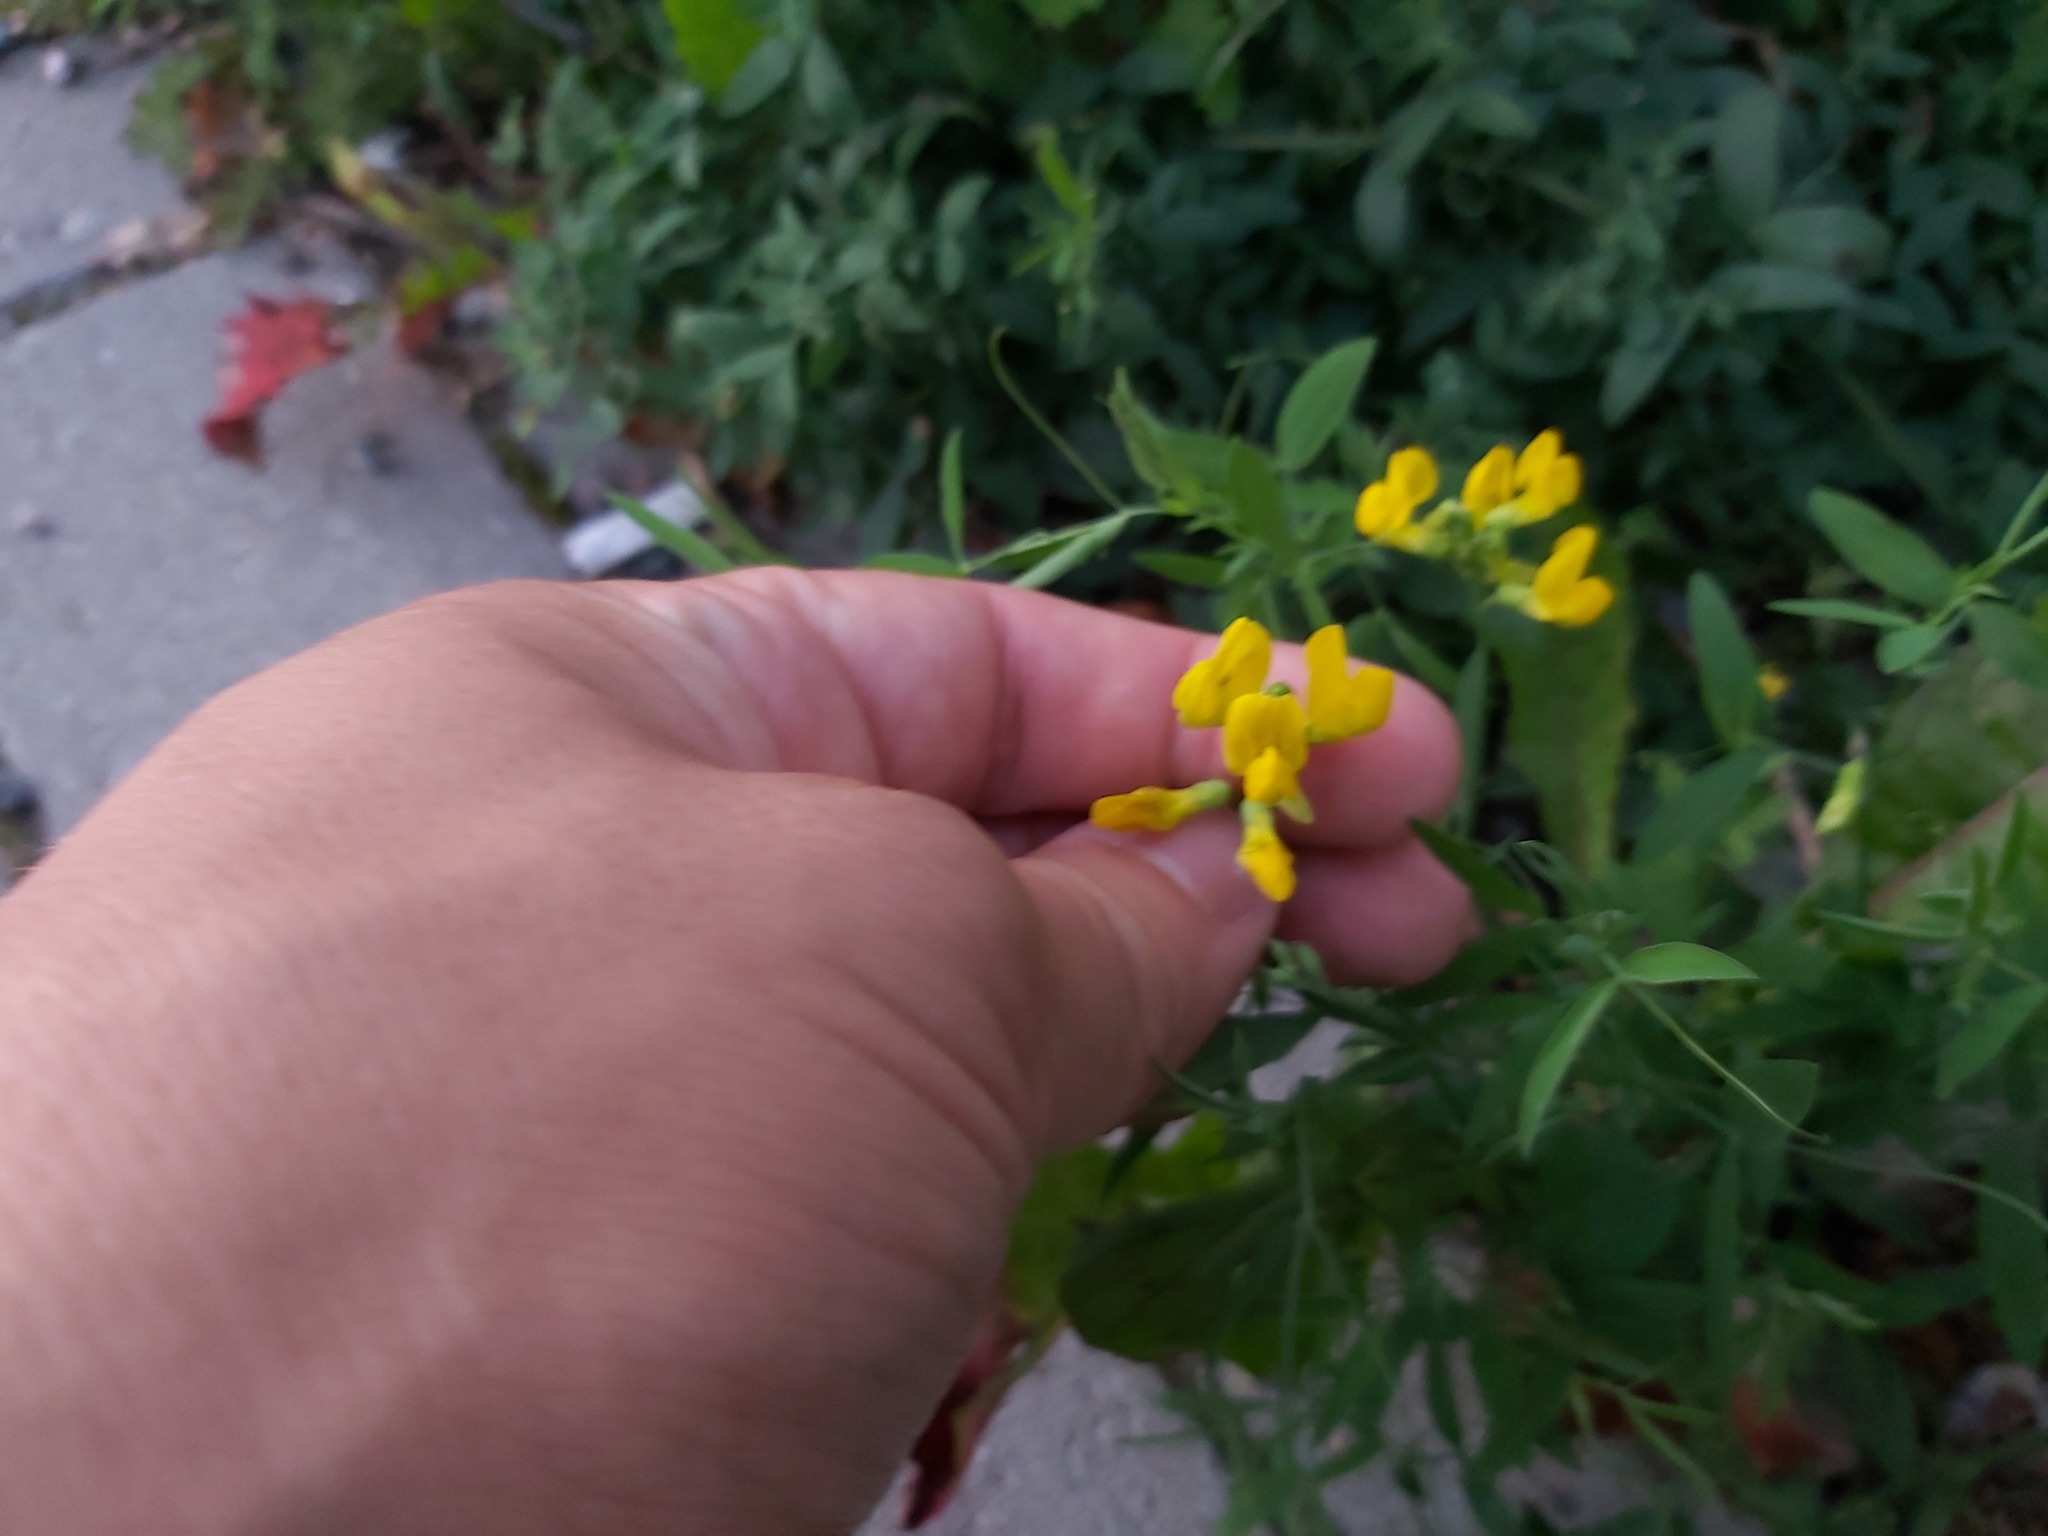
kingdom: Plantae
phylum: Tracheophyta
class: Magnoliopsida
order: Fabales
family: Fabaceae
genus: Lathyrus
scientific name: Lathyrus pratensis
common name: Meadow vetchling
